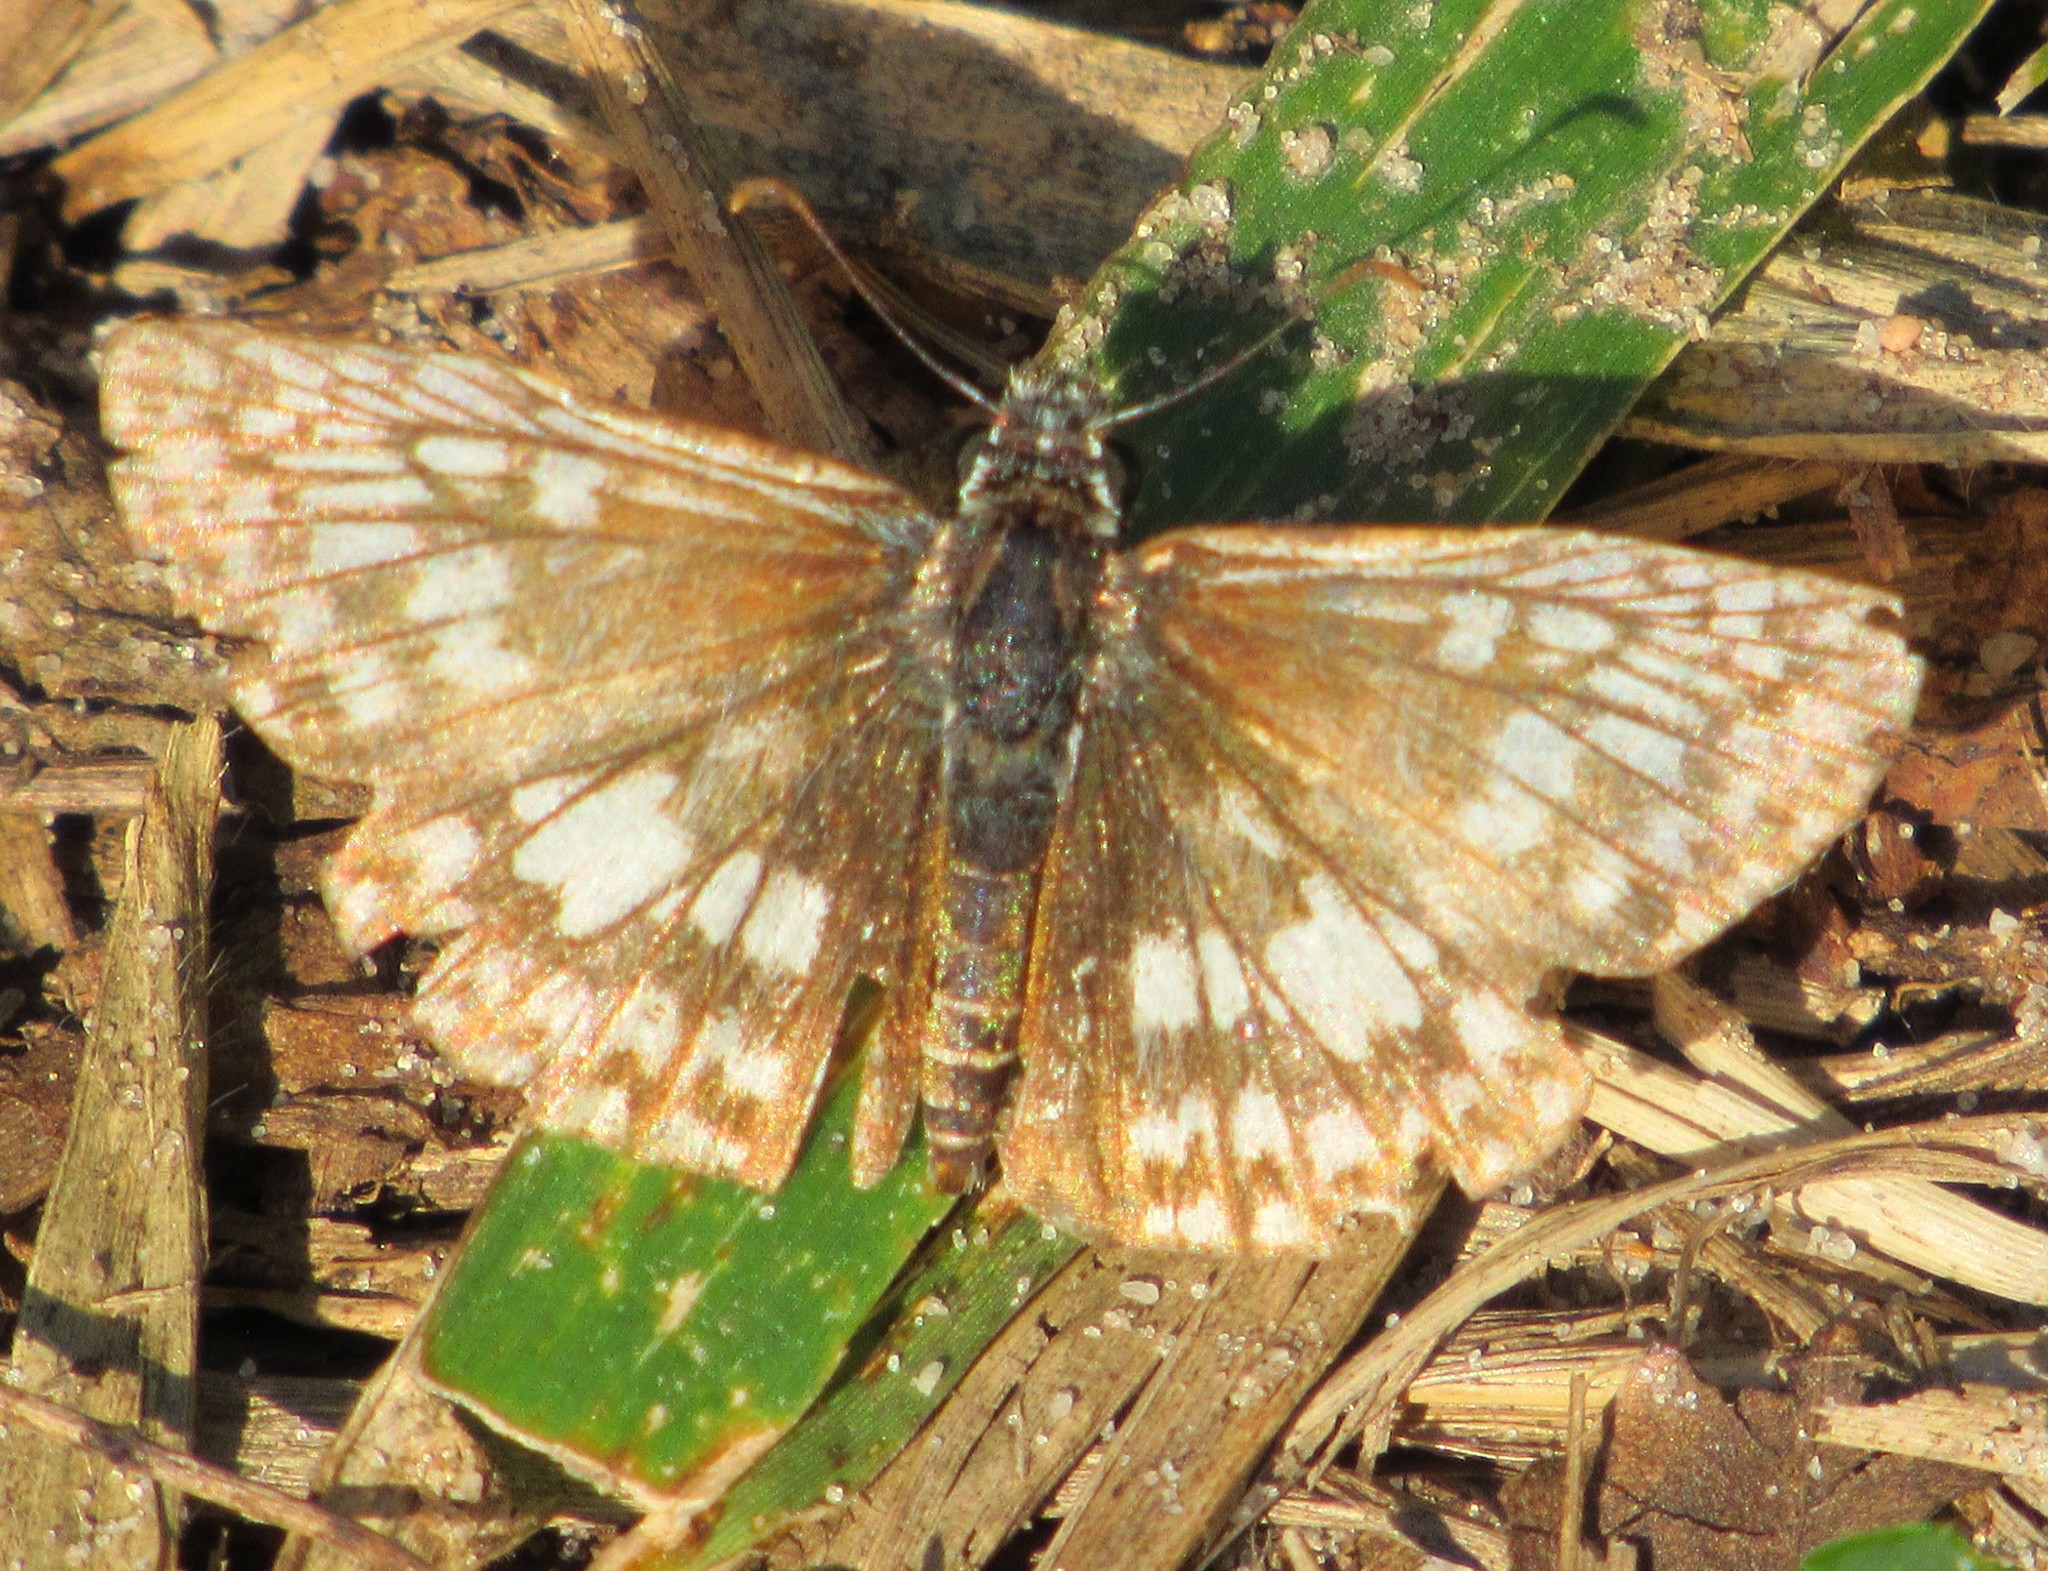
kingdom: Animalia
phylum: Arthropoda
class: Insecta
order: Lepidoptera
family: Hesperiidae
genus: Pyrgus
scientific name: Pyrgus oileus
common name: Tropical checkered-skipper
